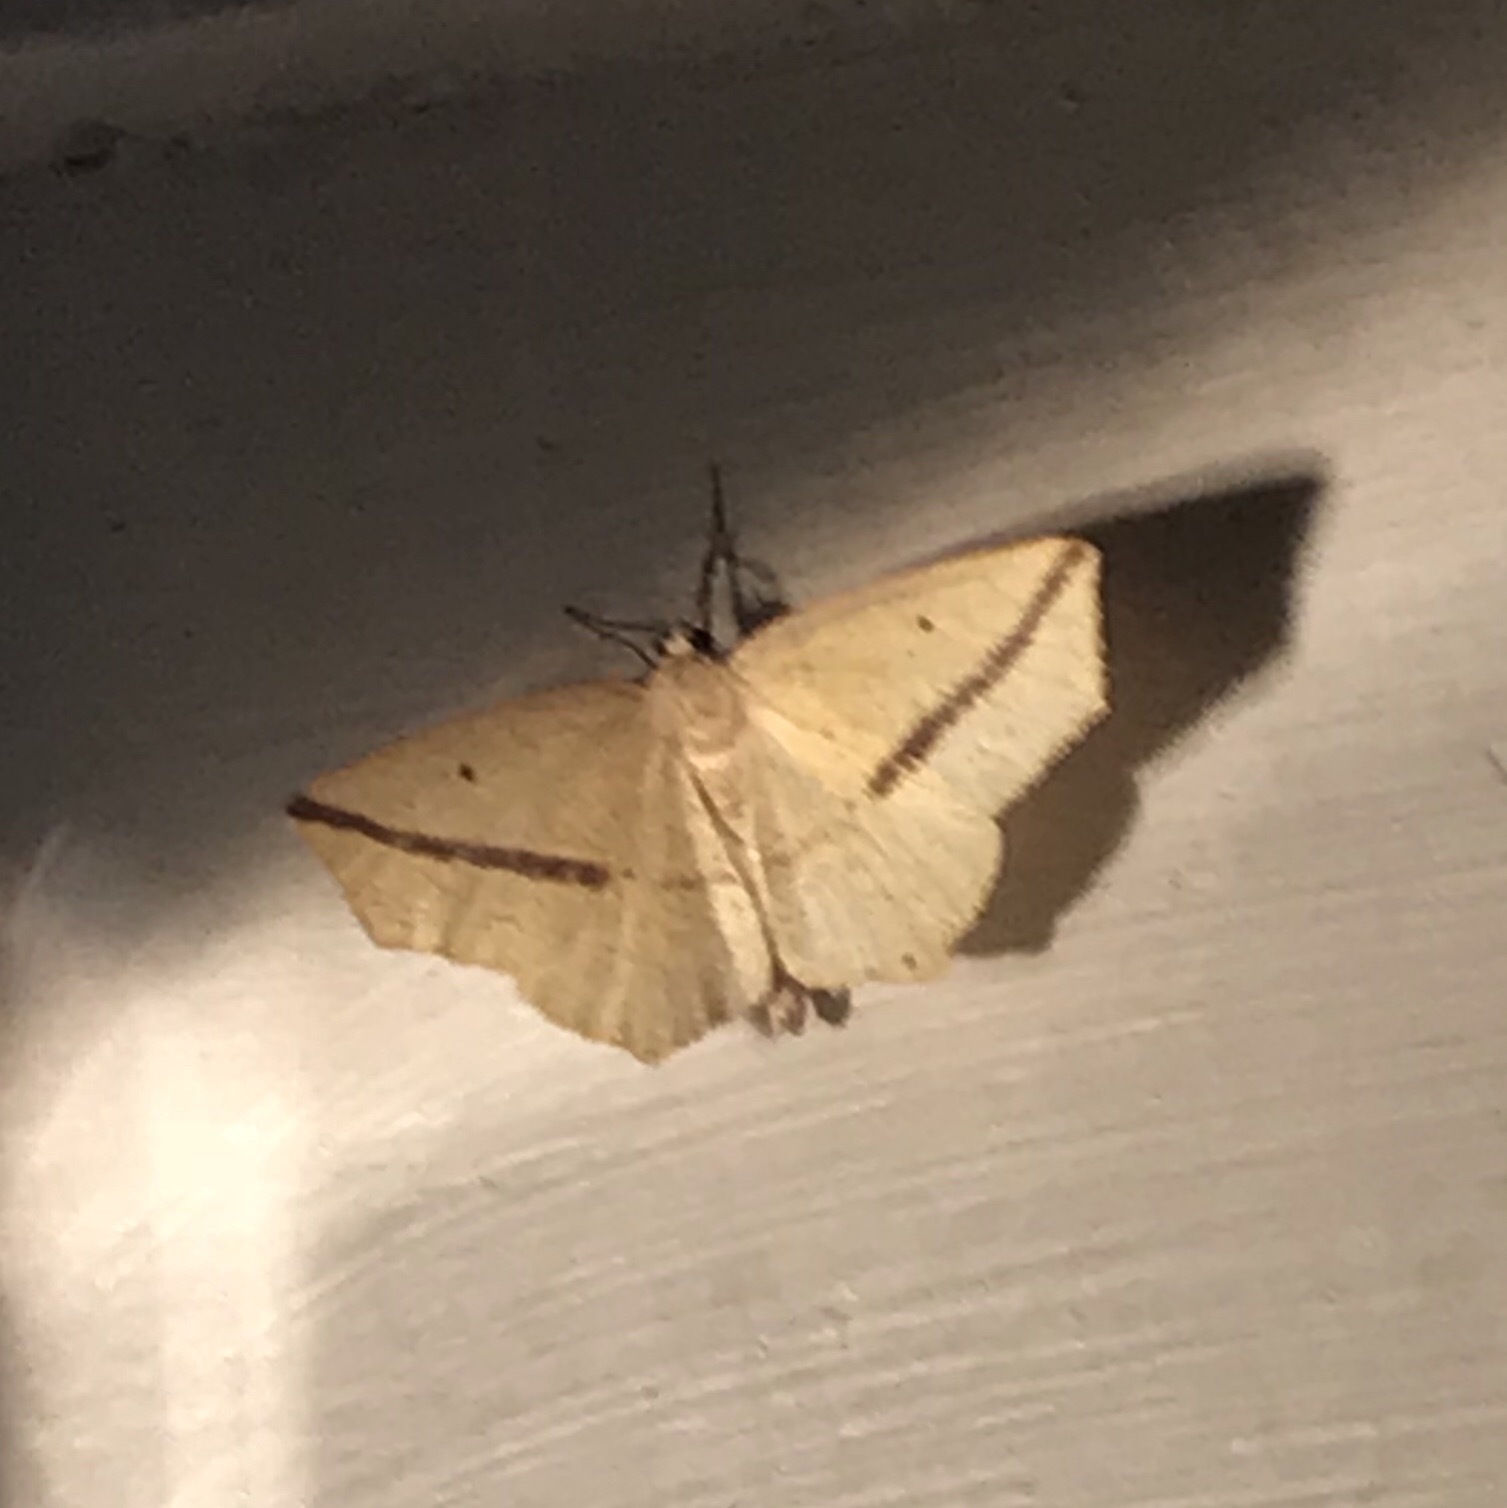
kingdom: Animalia
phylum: Arthropoda
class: Insecta
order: Lepidoptera
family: Geometridae
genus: Tetracis
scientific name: Tetracis crocallata
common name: Yellow slant-line
